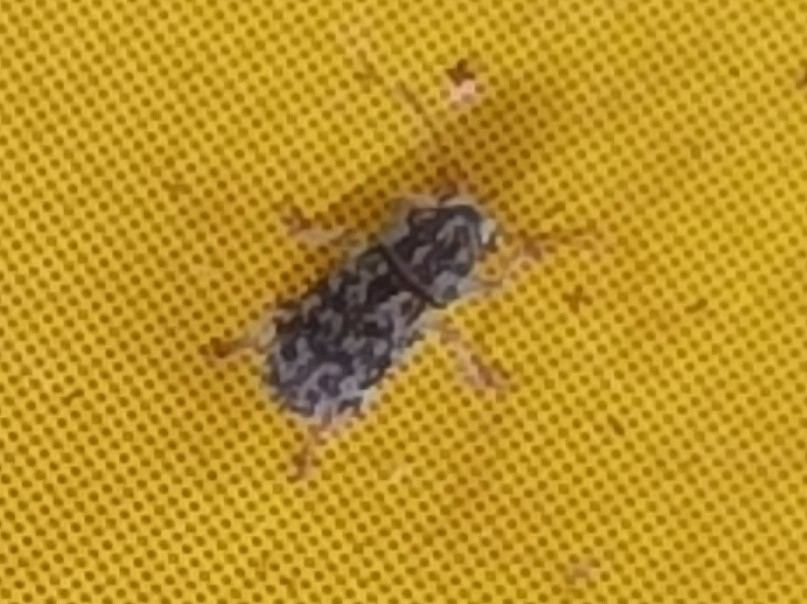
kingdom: Animalia
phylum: Arthropoda
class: Insecta
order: Coleoptera
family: Anthribidae
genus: Mauia
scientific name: Mauia subnotata
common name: Fungus weevil
